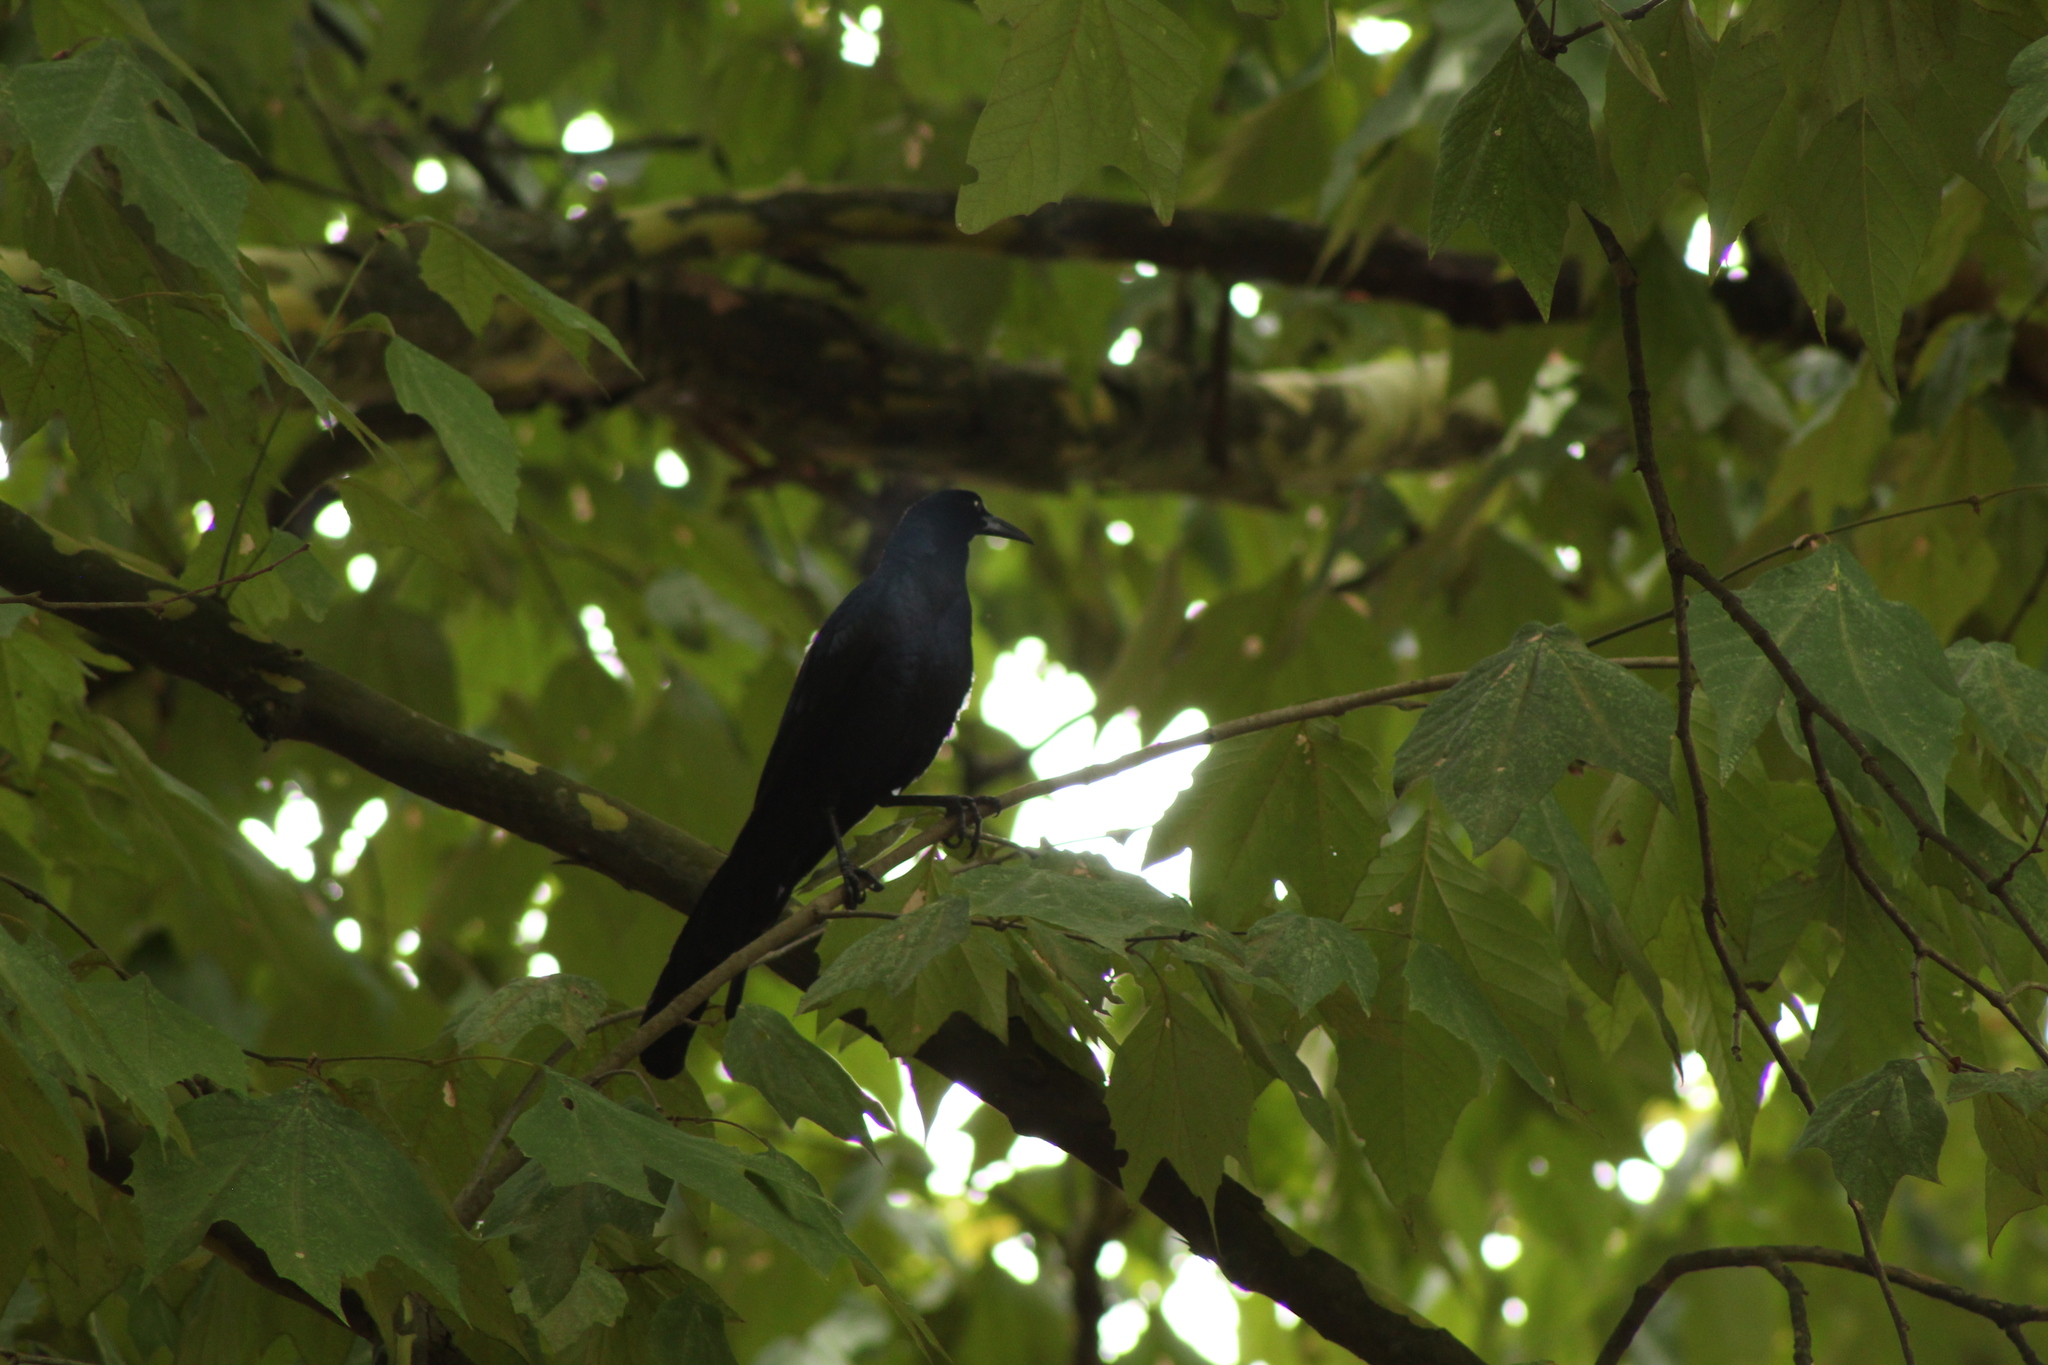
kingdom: Animalia
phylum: Chordata
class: Aves
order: Passeriformes
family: Icteridae
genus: Quiscalus
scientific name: Quiscalus mexicanus
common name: Great-tailed grackle
